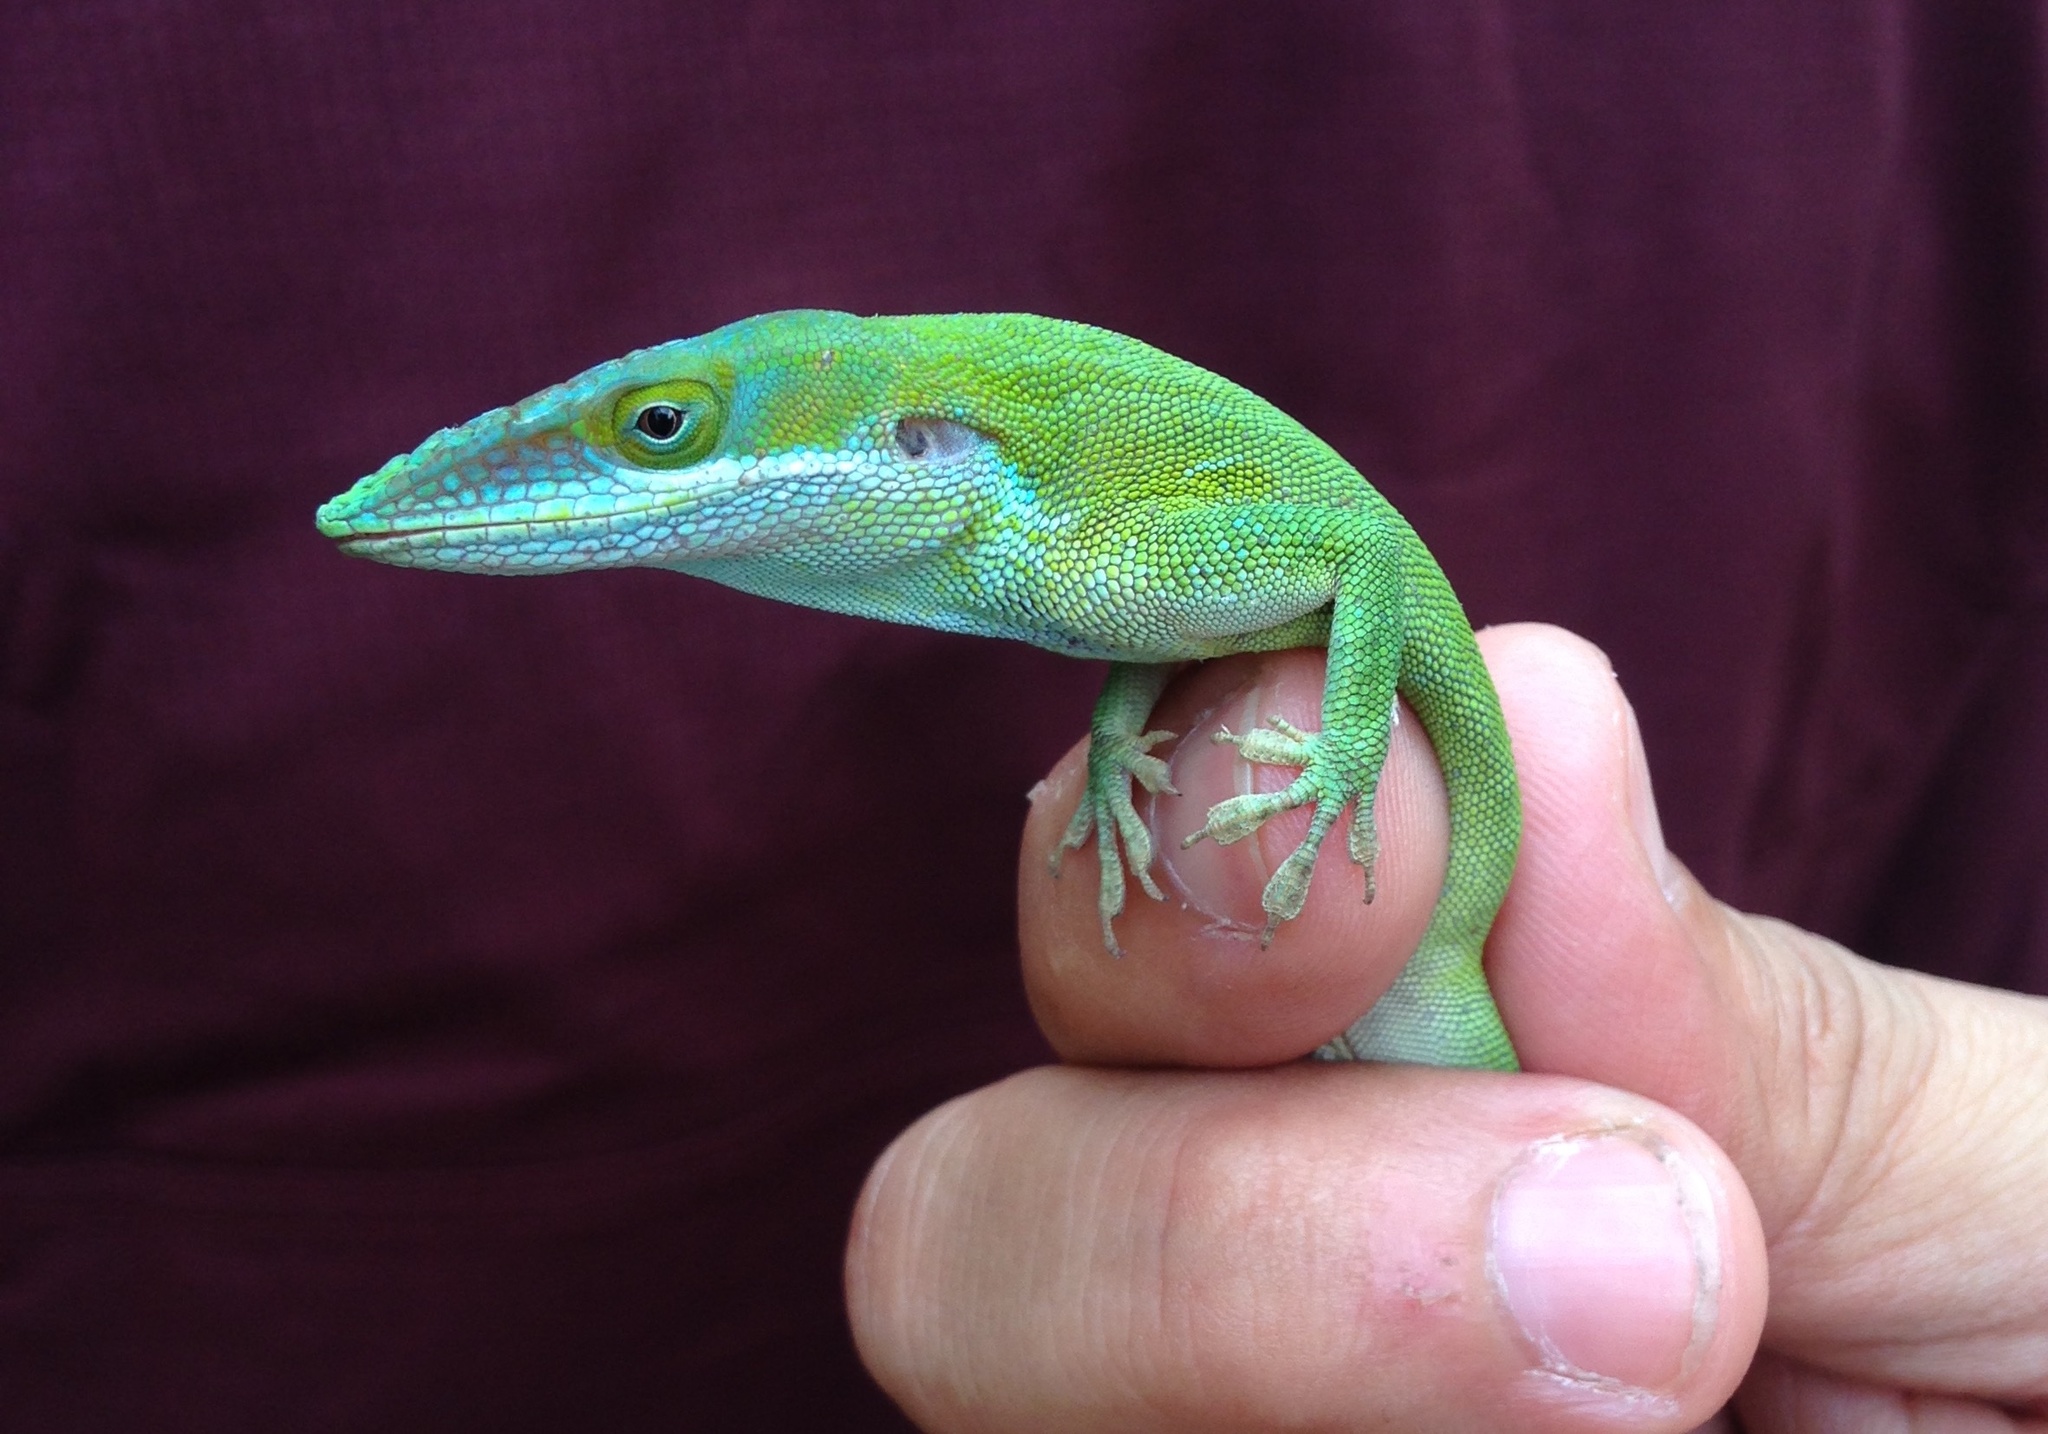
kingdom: Animalia
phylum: Chordata
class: Squamata
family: Dactyloidae
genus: Anolis
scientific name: Anolis allisoni
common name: Allison's anole
